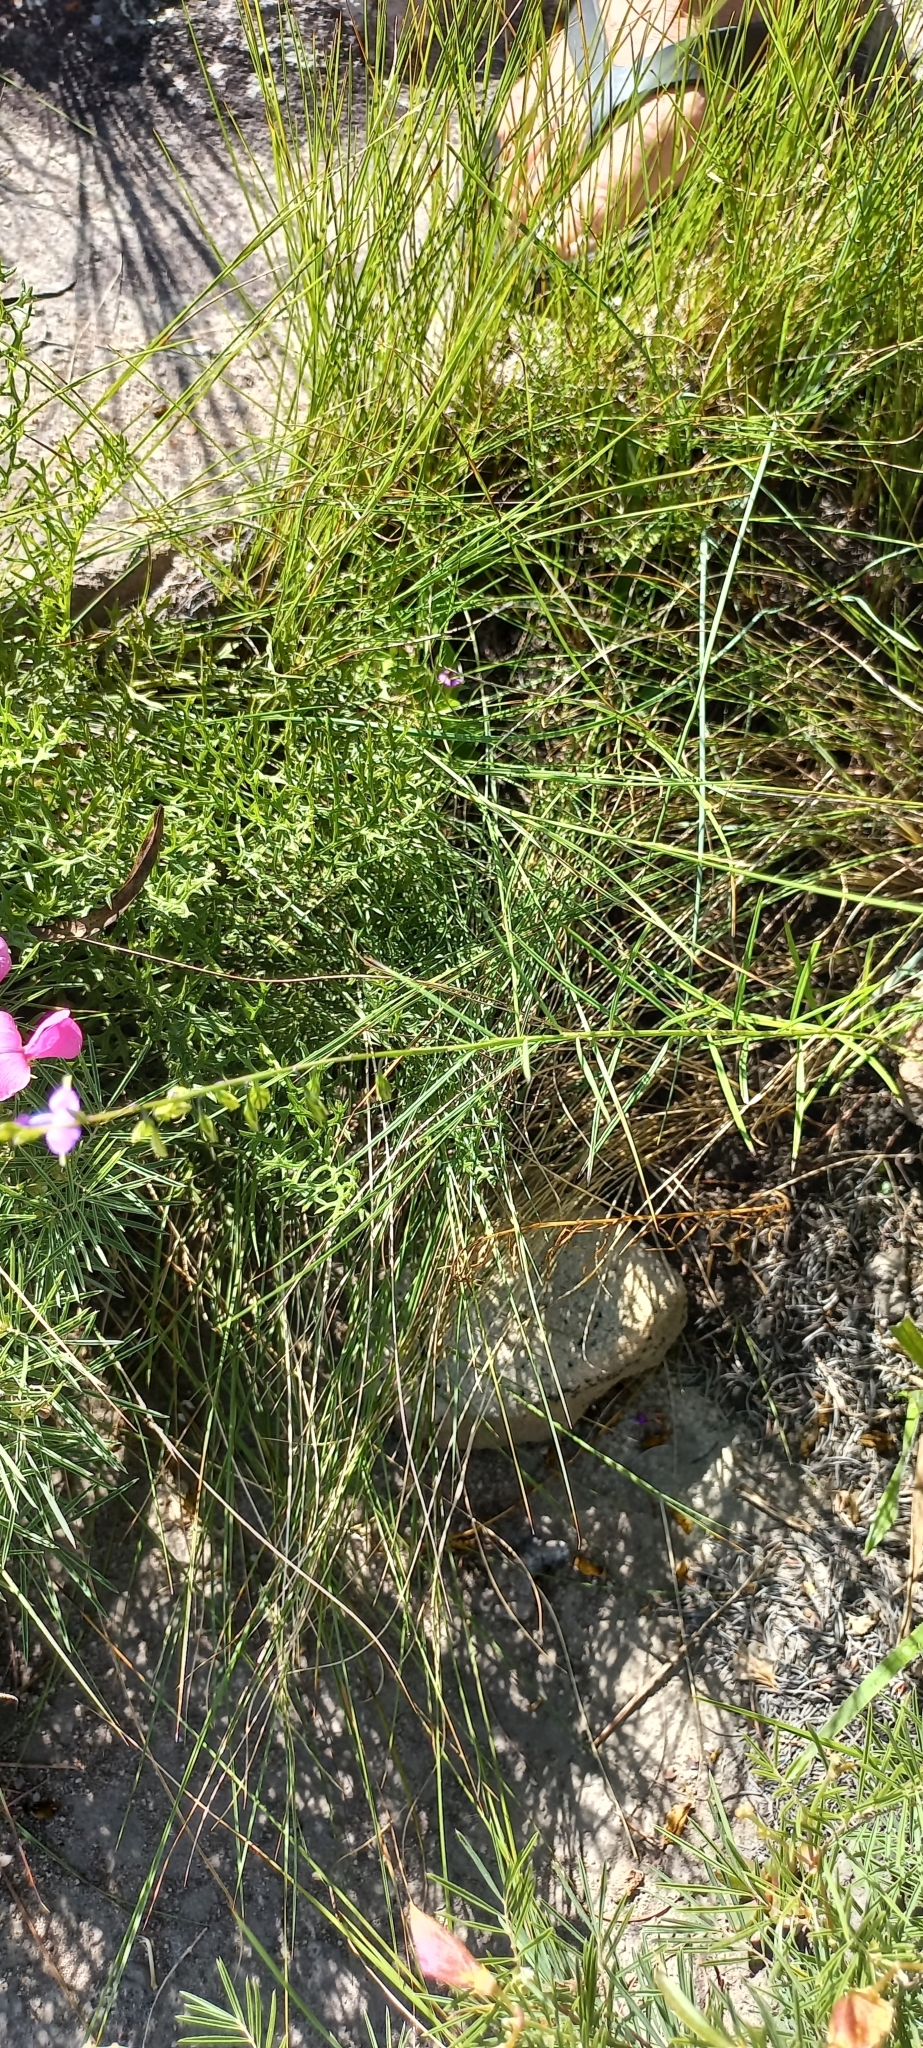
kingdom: Plantae
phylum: Tracheophyta
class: Magnoliopsida
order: Fabales
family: Polygalaceae
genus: Polygala
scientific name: Polygala gracilenta
